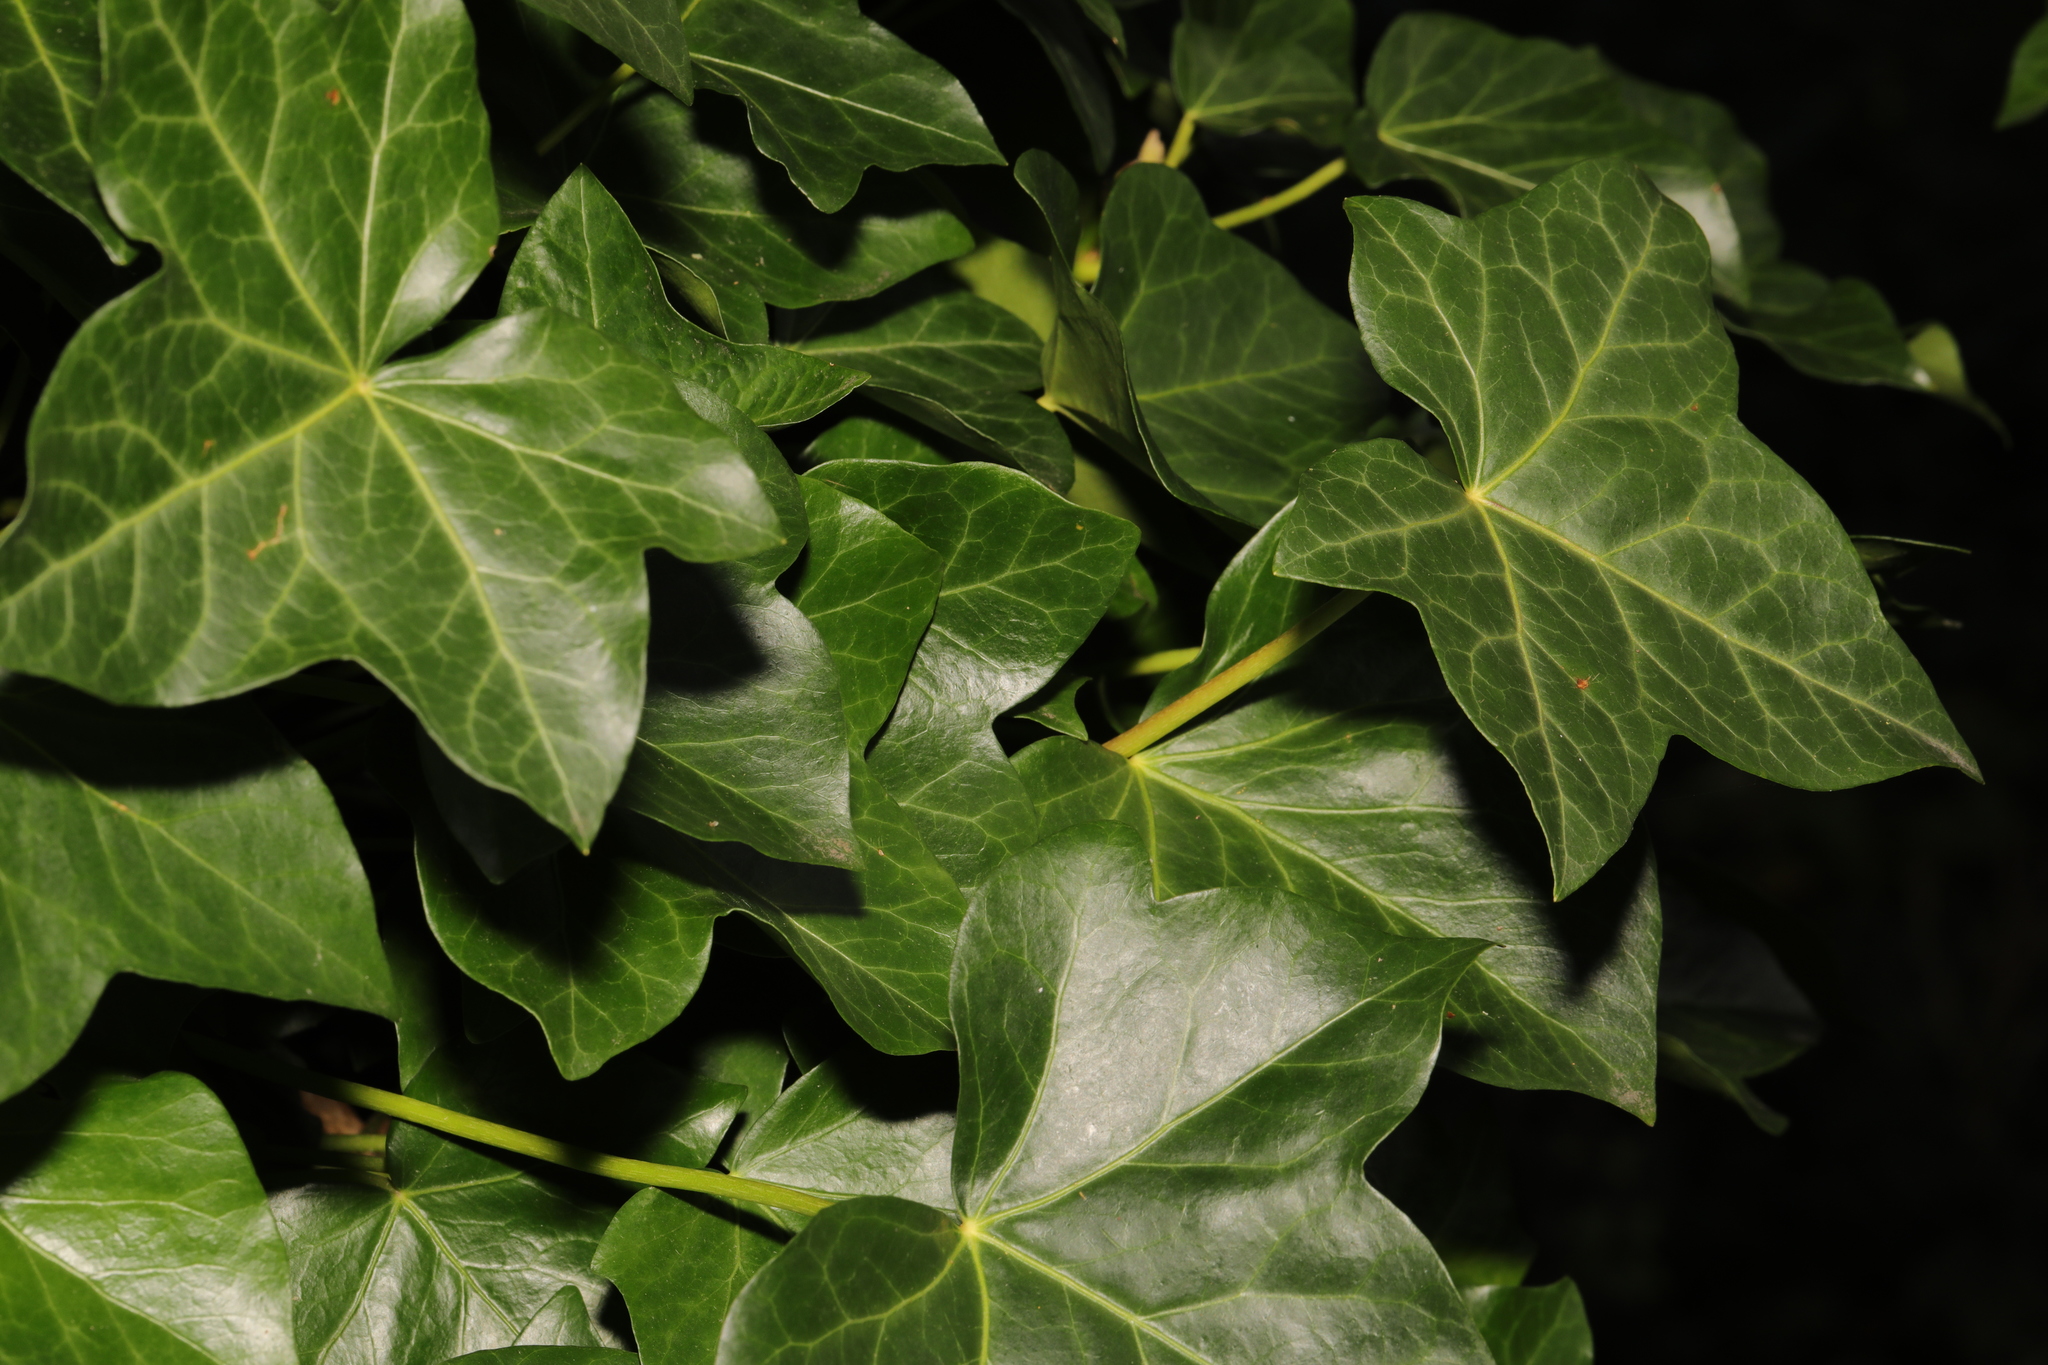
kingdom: Plantae
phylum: Tracheophyta
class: Magnoliopsida
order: Apiales
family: Araliaceae
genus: Hedera
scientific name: Hedera helix
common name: Ivy
